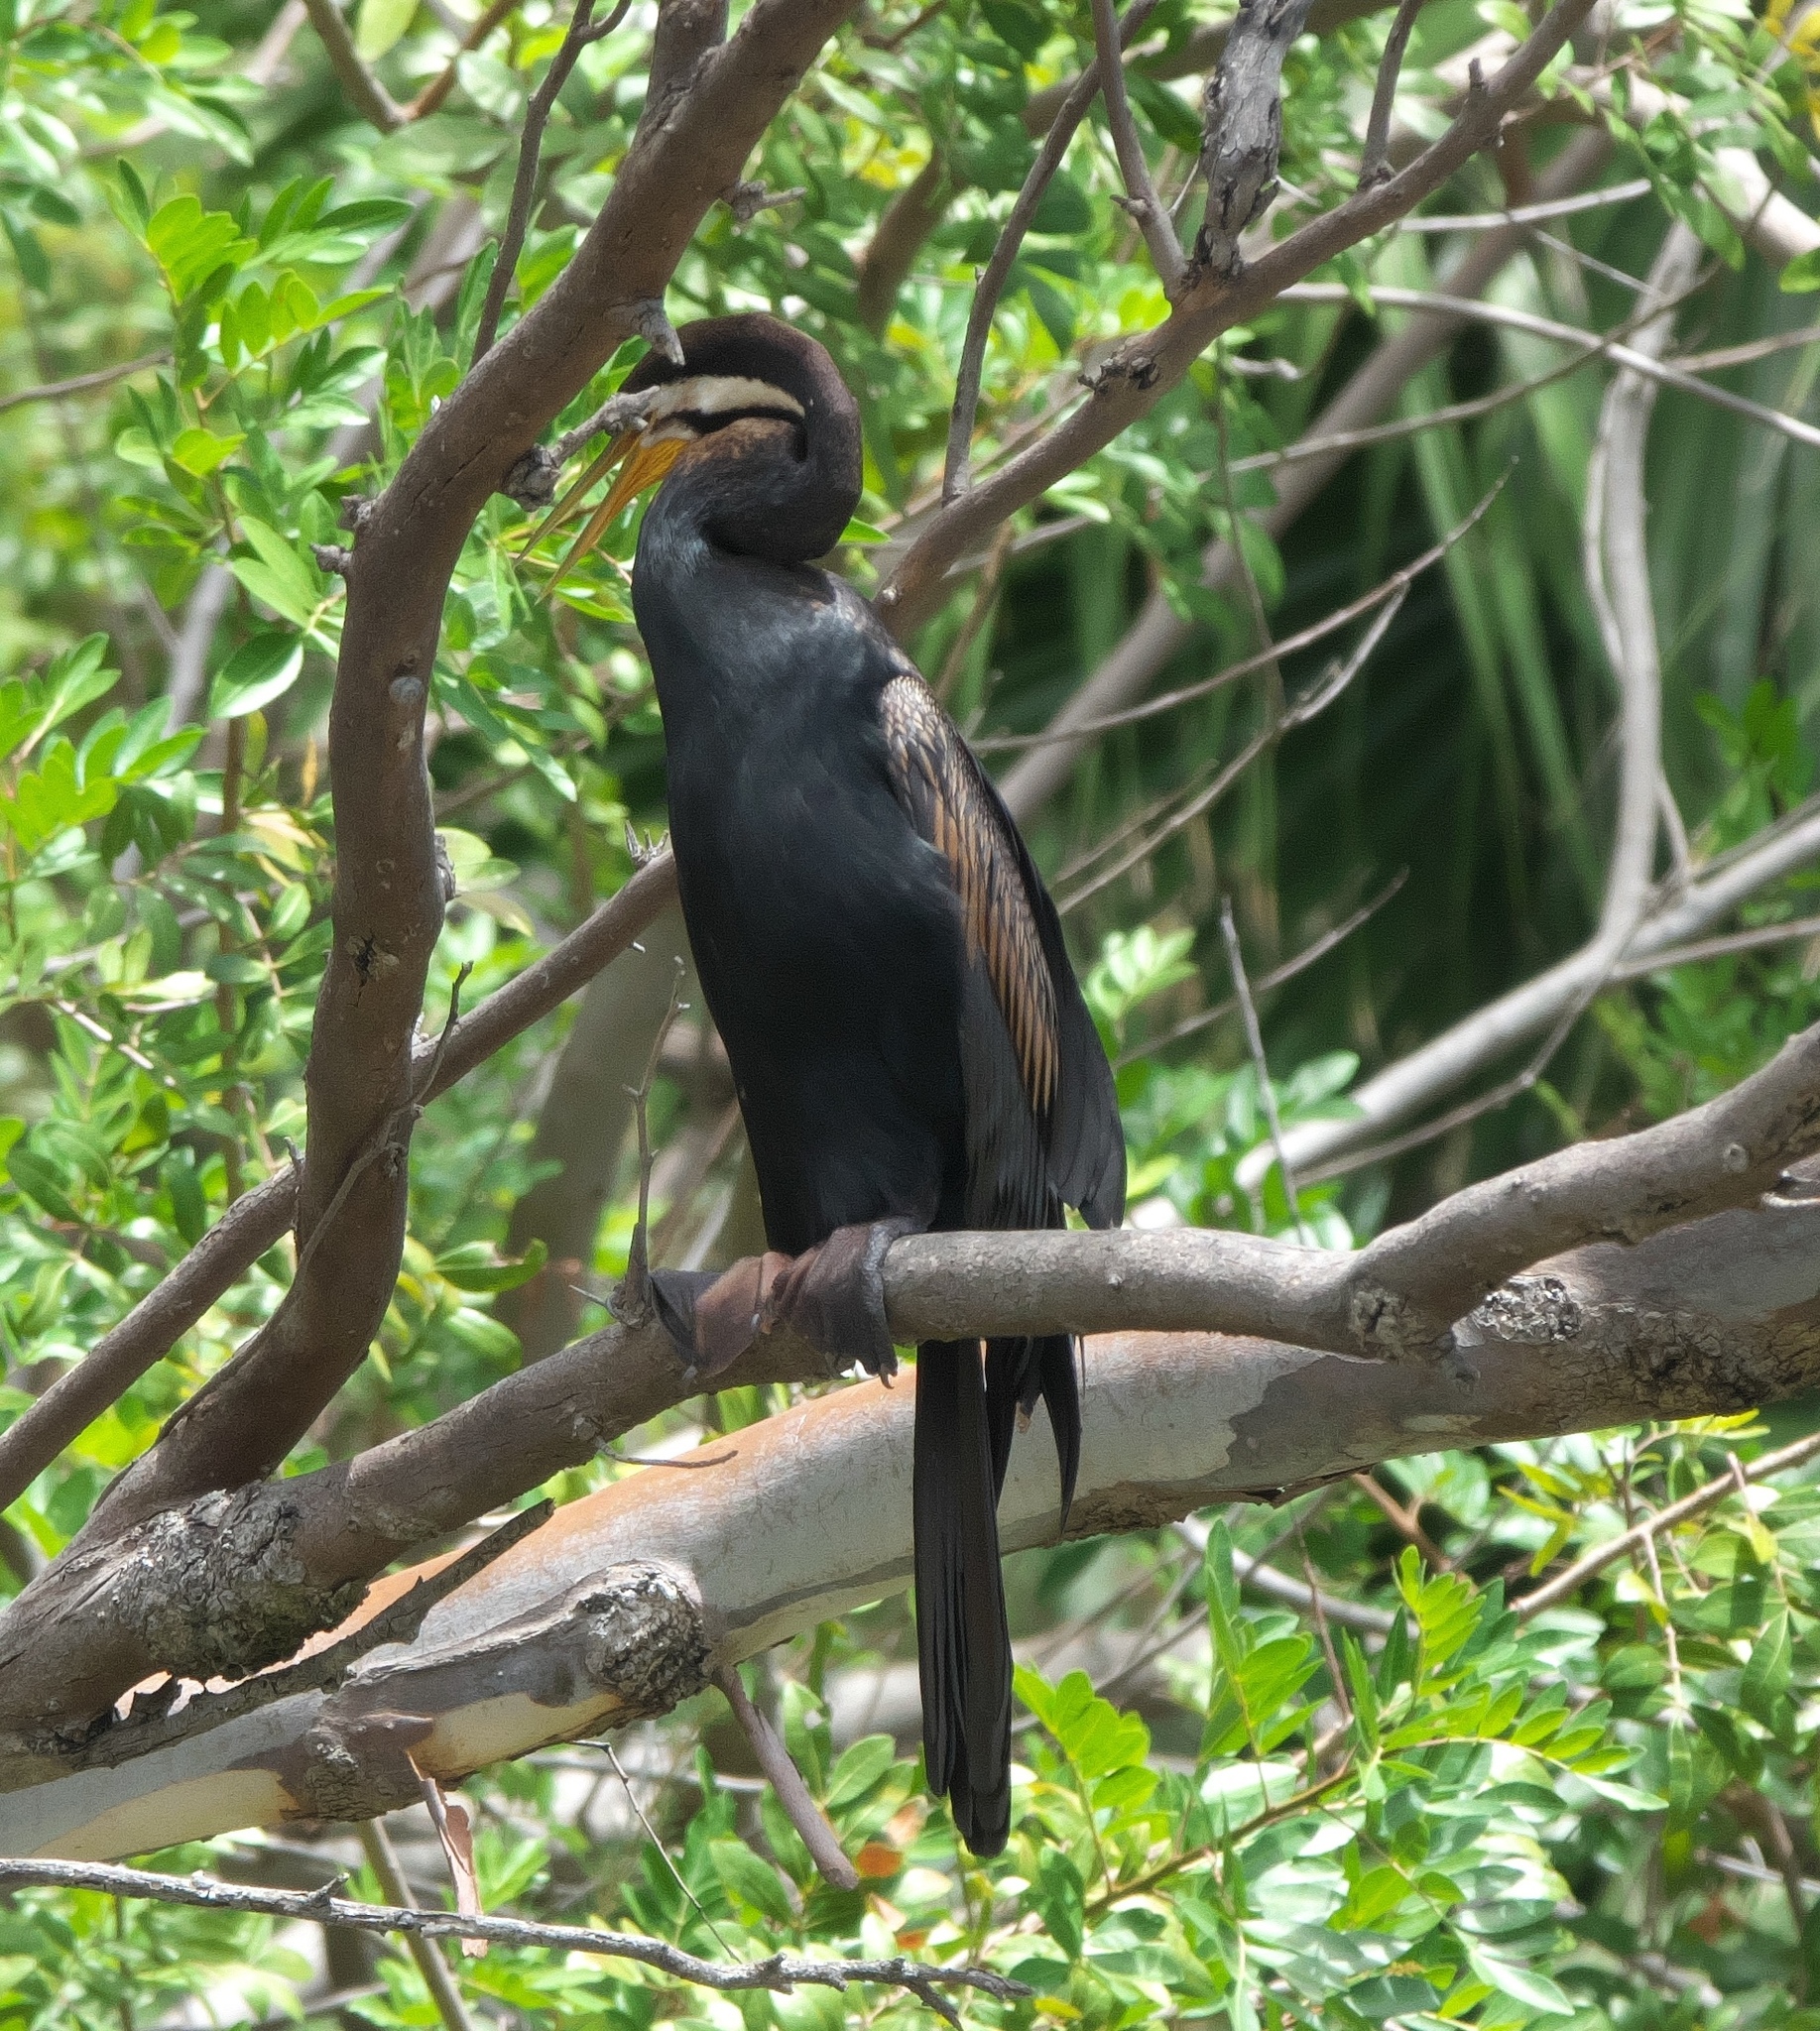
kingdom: Animalia
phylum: Chordata
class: Aves
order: Suliformes
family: Anhingidae
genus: Anhinga
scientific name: Anhinga novaehollandiae
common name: Australasian darter
